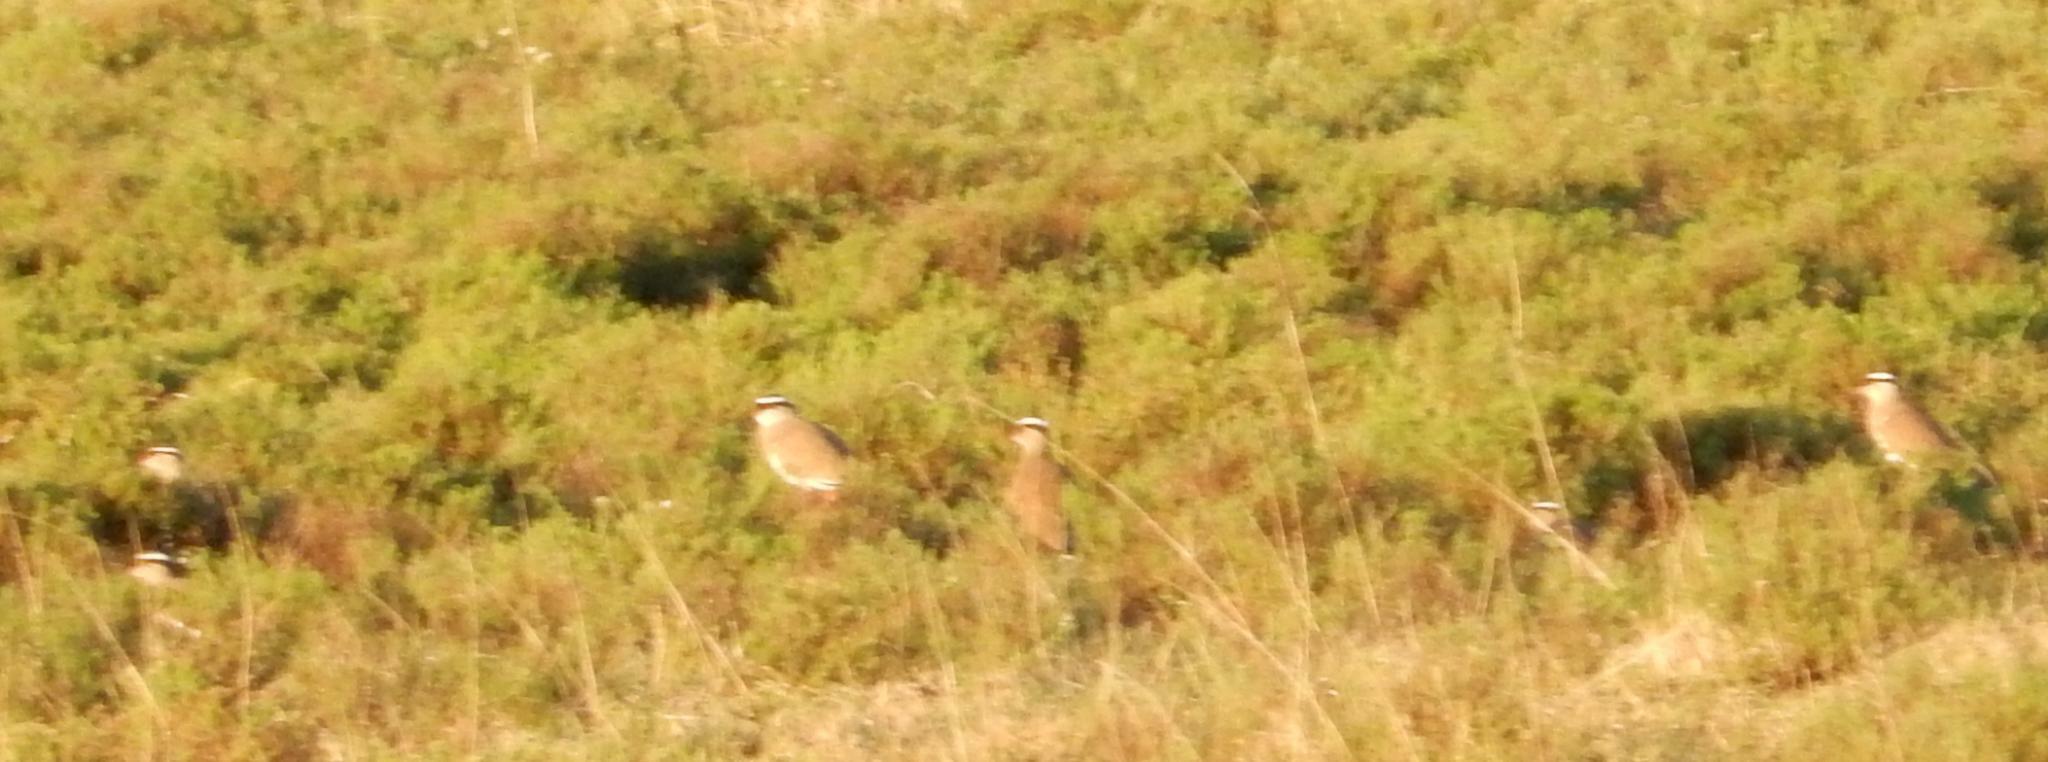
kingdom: Animalia
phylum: Chordata
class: Aves
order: Charadriiformes
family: Charadriidae
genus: Vanellus
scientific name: Vanellus coronatus
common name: Crowned lapwing
